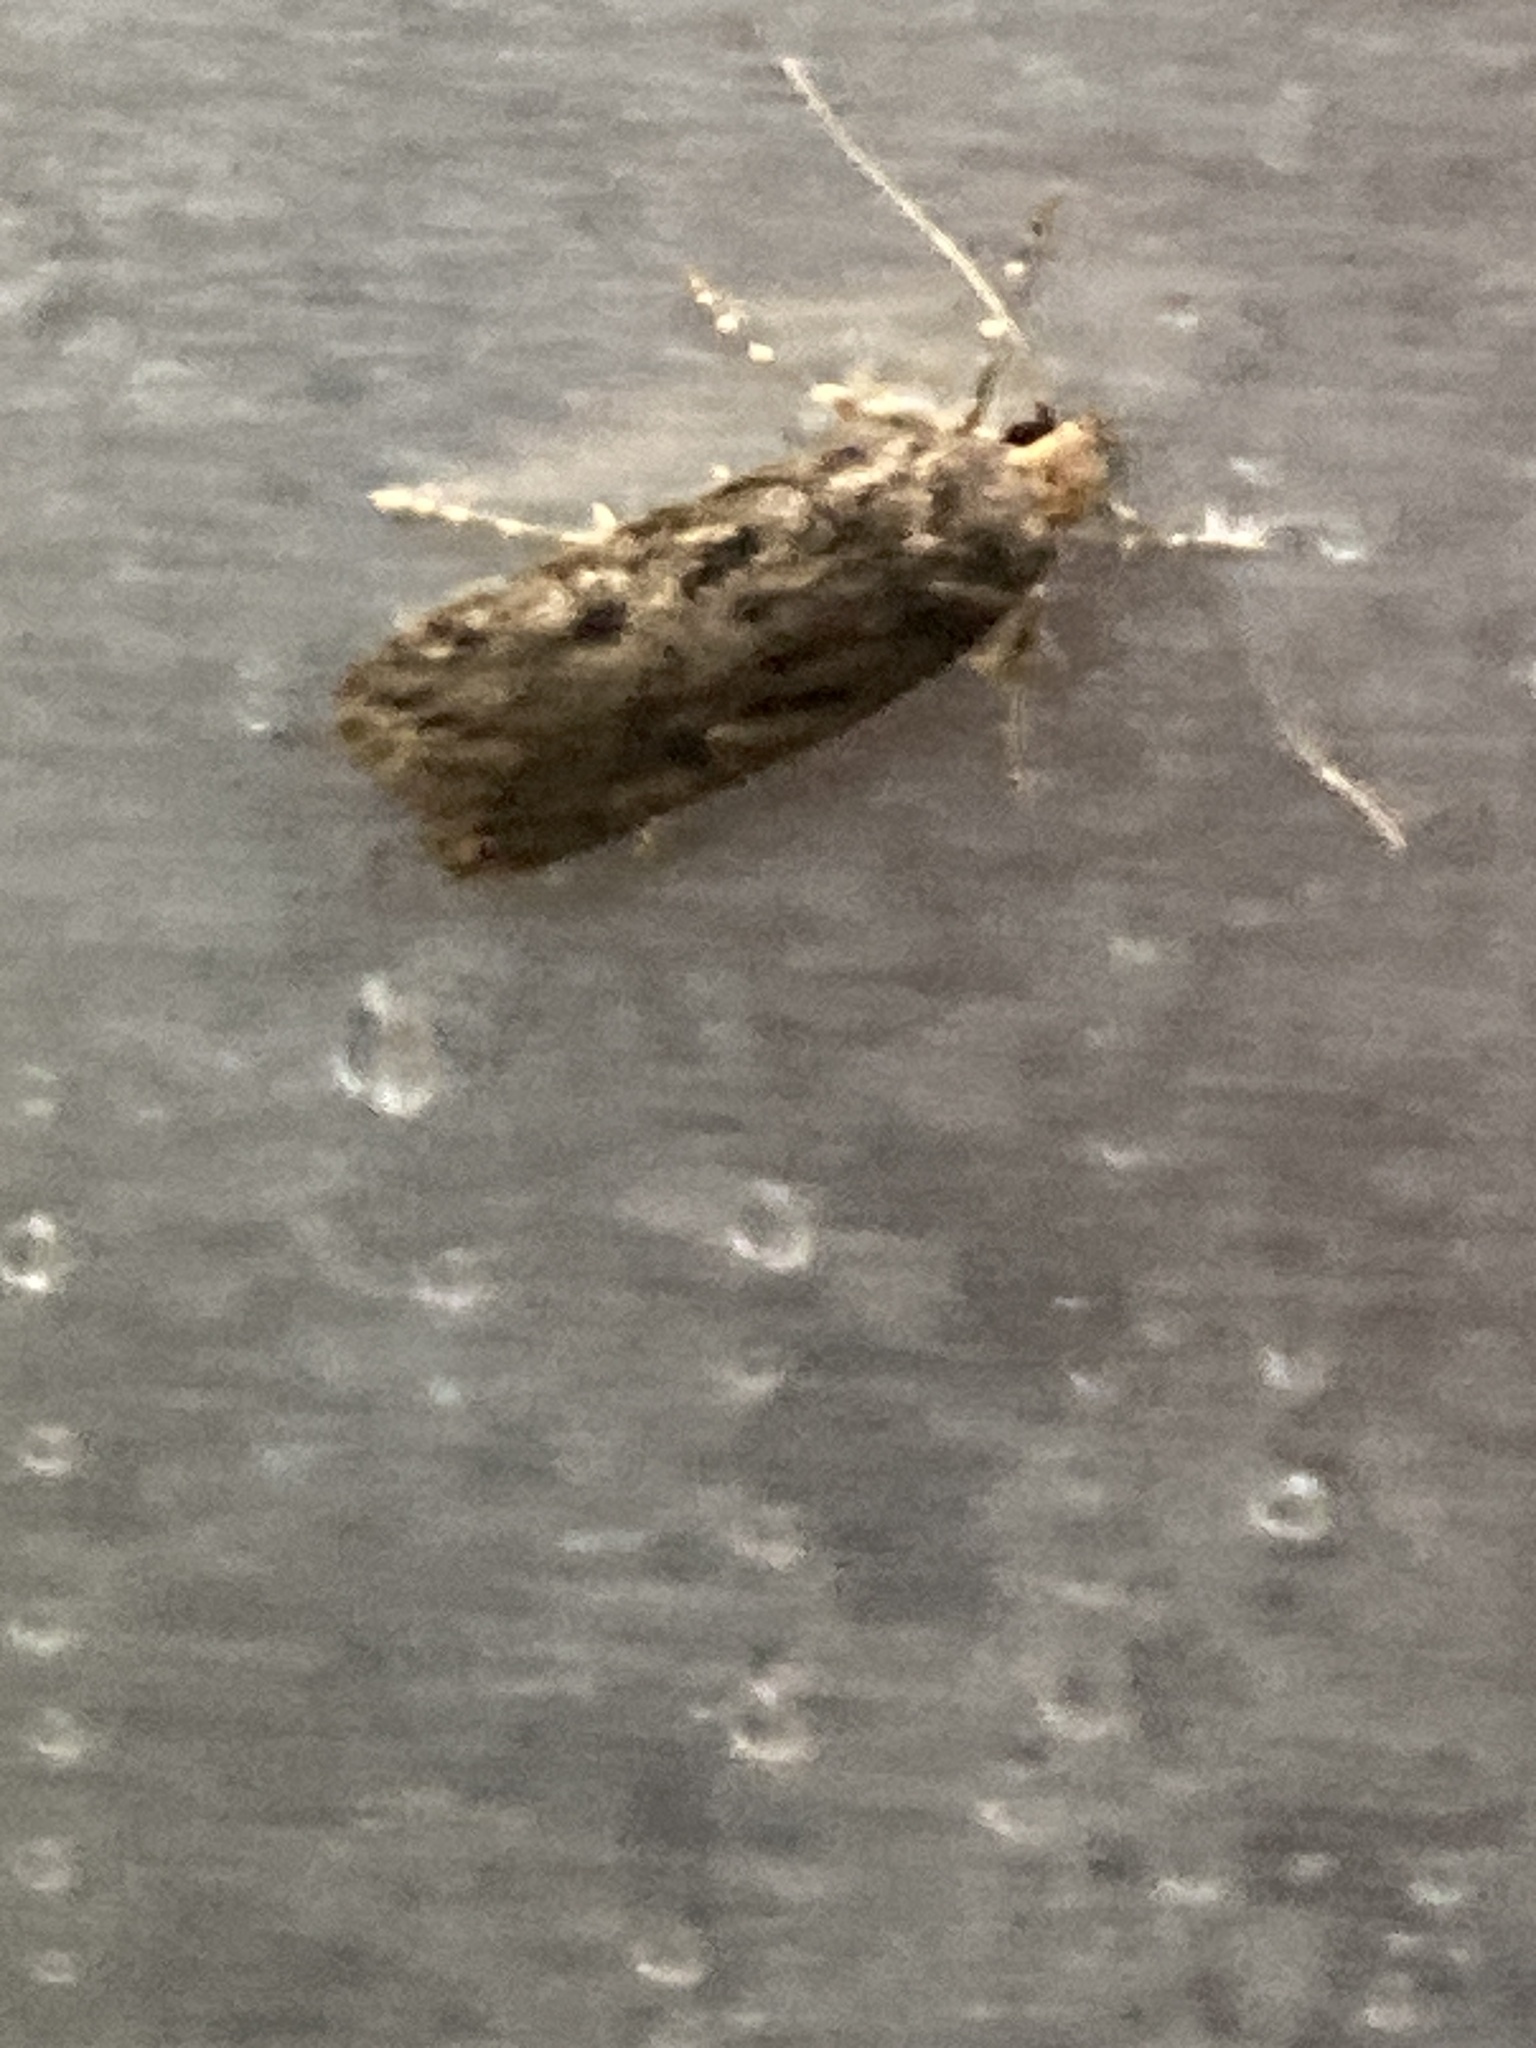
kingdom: Animalia
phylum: Arthropoda
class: Insecta
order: Lepidoptera
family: Oecophoridae
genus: Hofmannophila
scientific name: Hofmannophila pseudospretella
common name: Brown house moth
